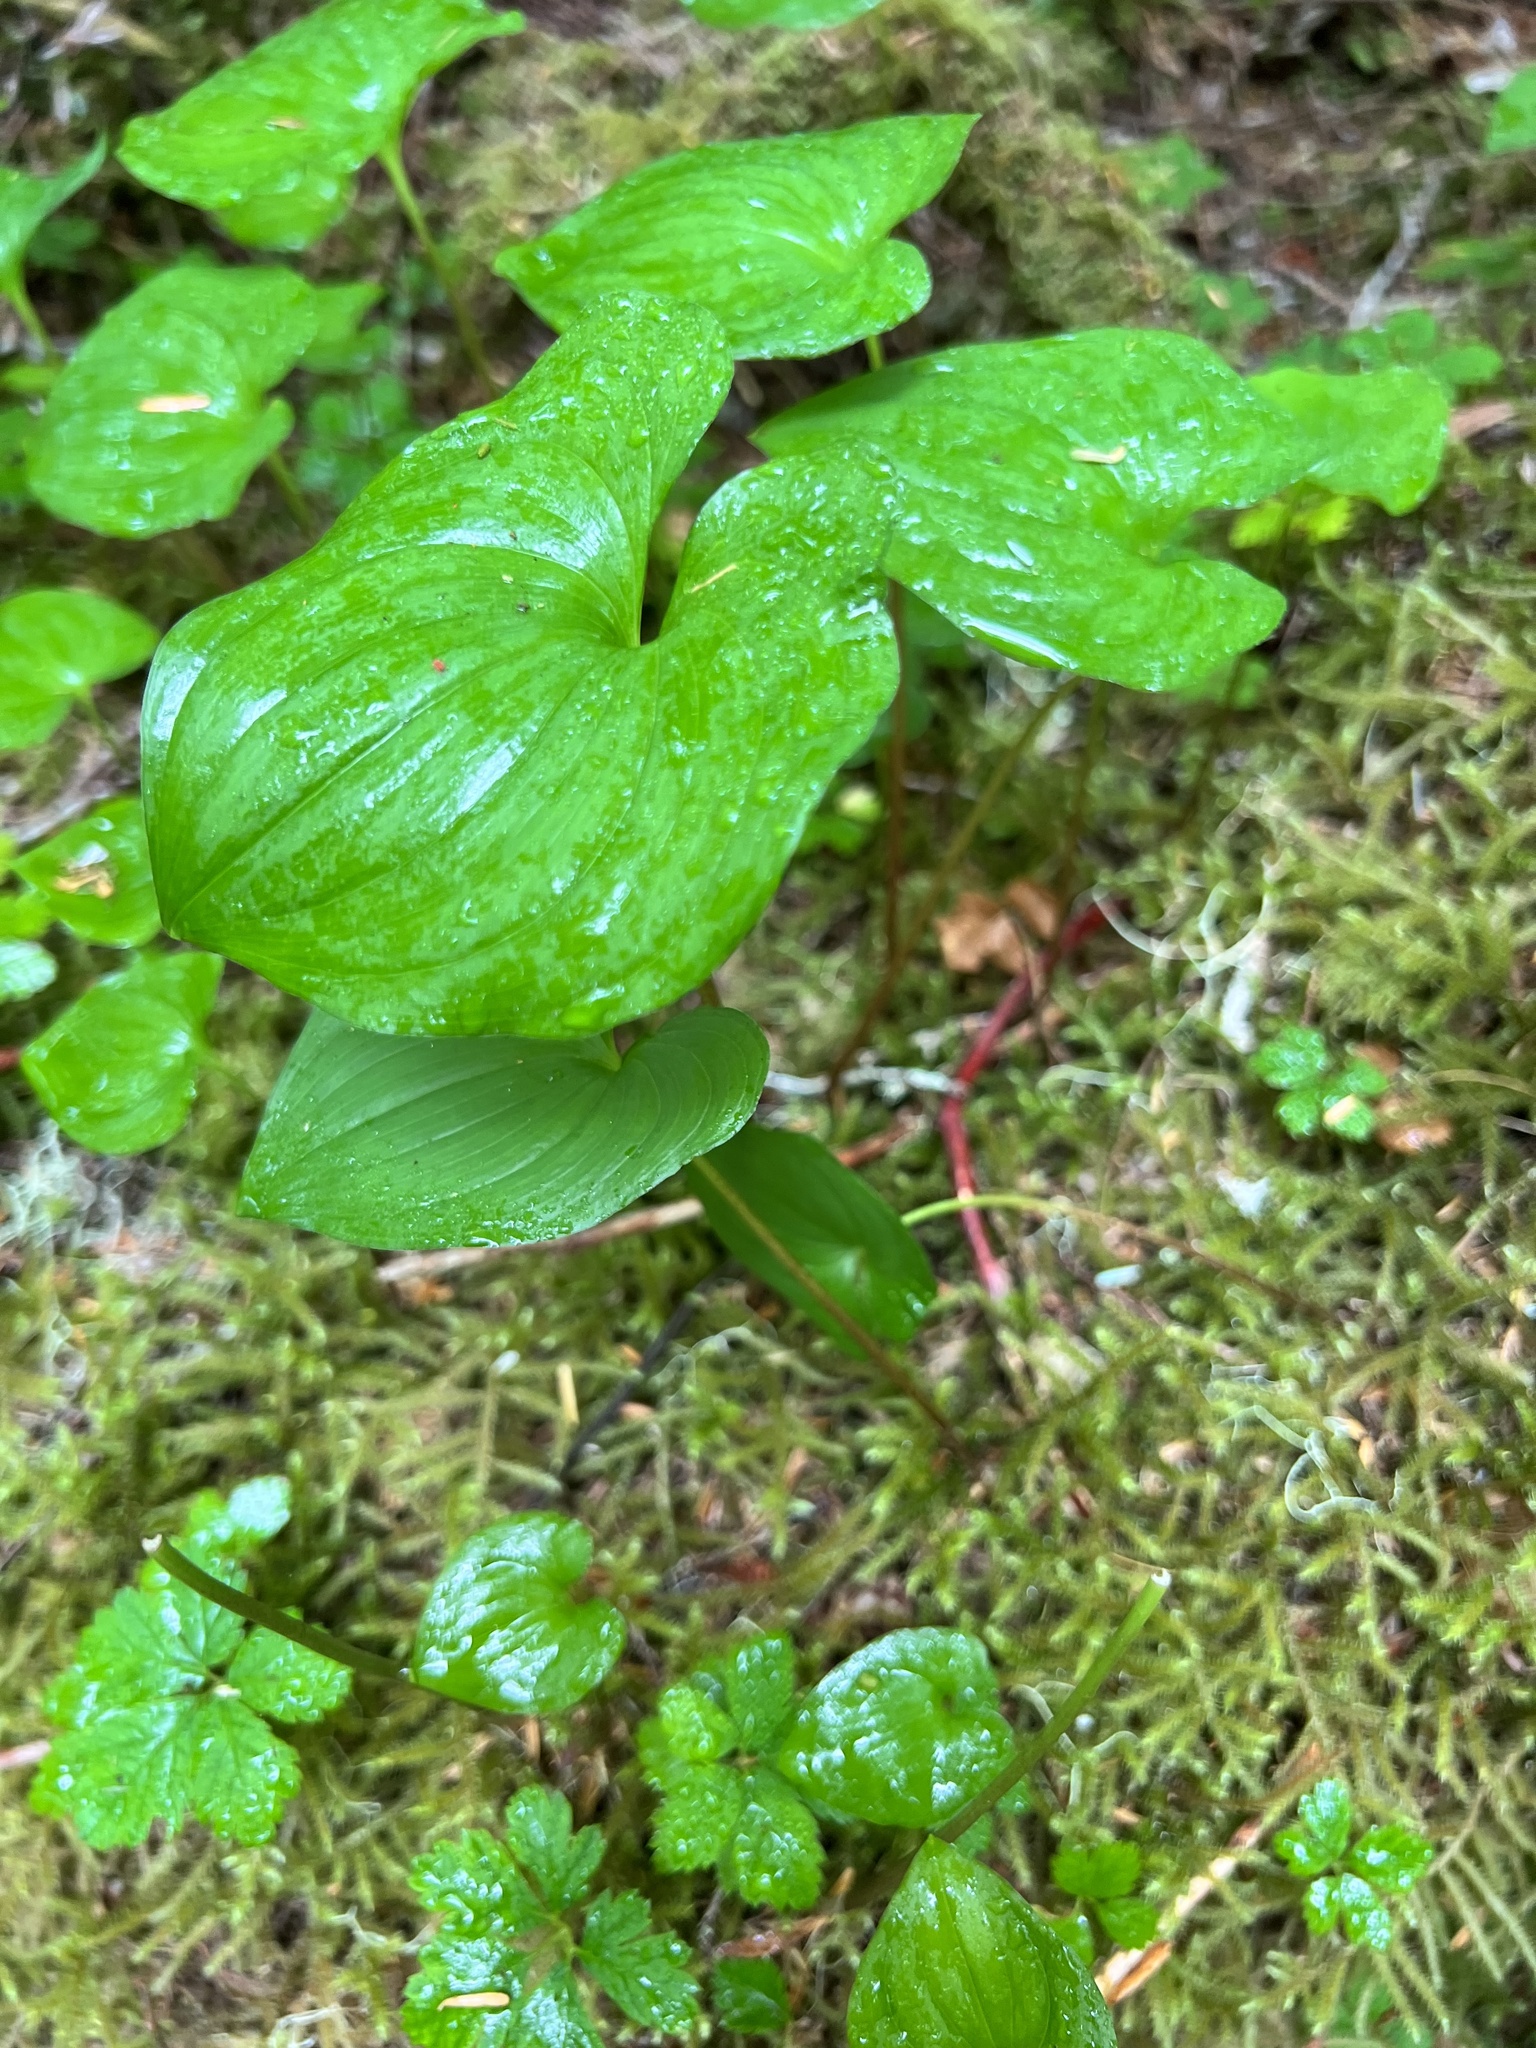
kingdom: Plantae
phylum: Tracheophyta
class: Liliopsida
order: Asparagales
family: Asparagaceae
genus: Maianthemum
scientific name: Maianthemum dilatatum
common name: False lily-of-the-valley
